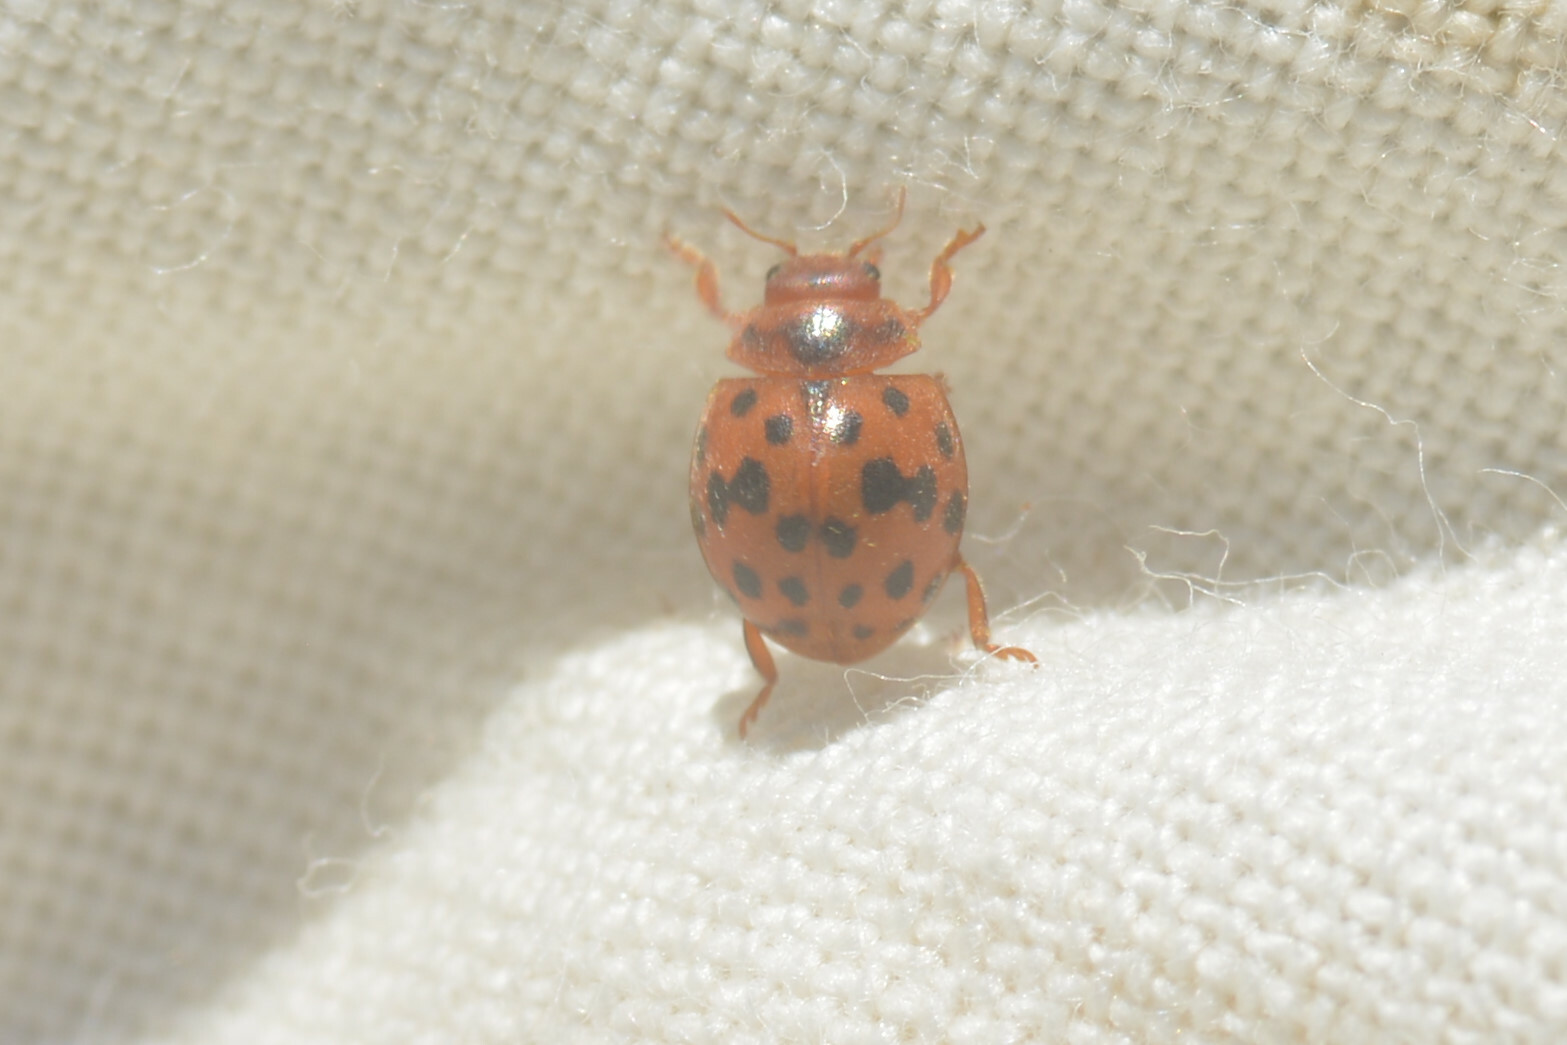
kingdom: Animalia
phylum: Arthropoda
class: Insecta
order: Coleoptera
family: Coccinellidae
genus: Subcoccinella
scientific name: Subcoccinella vigintiquatuorpunctata
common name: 24-spot ladybird
